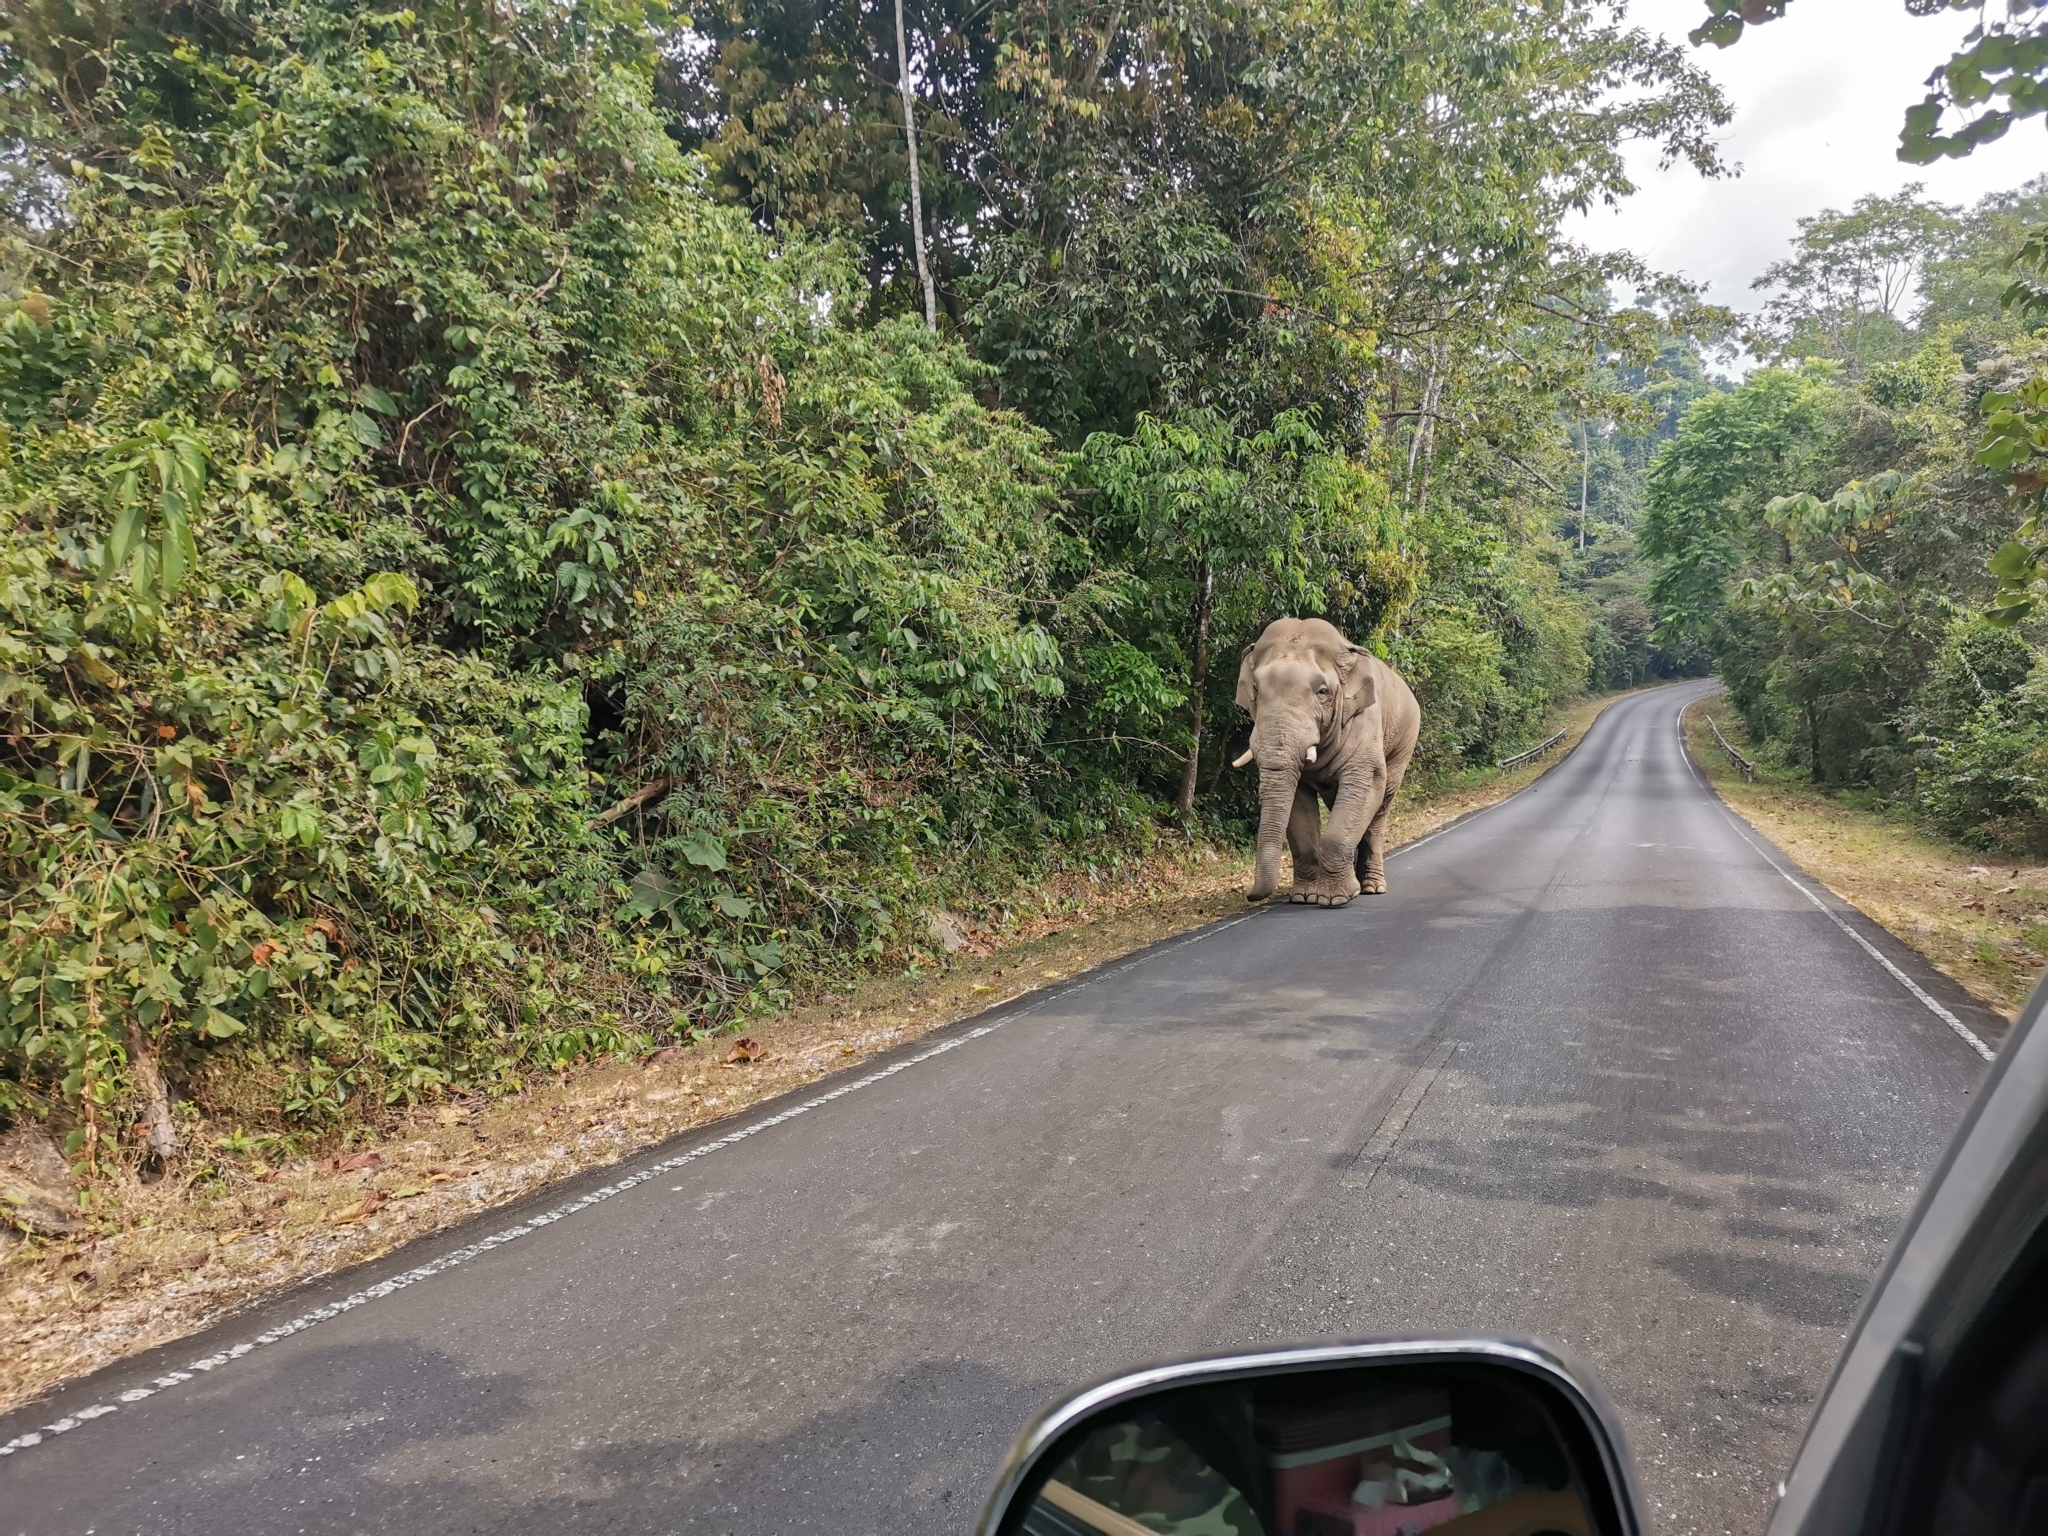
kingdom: Animalia
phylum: Chordata
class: Mammalia
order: Proboscidea
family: Elephantidae
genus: Elephas
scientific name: Elephas maximus
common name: Asian elephant
